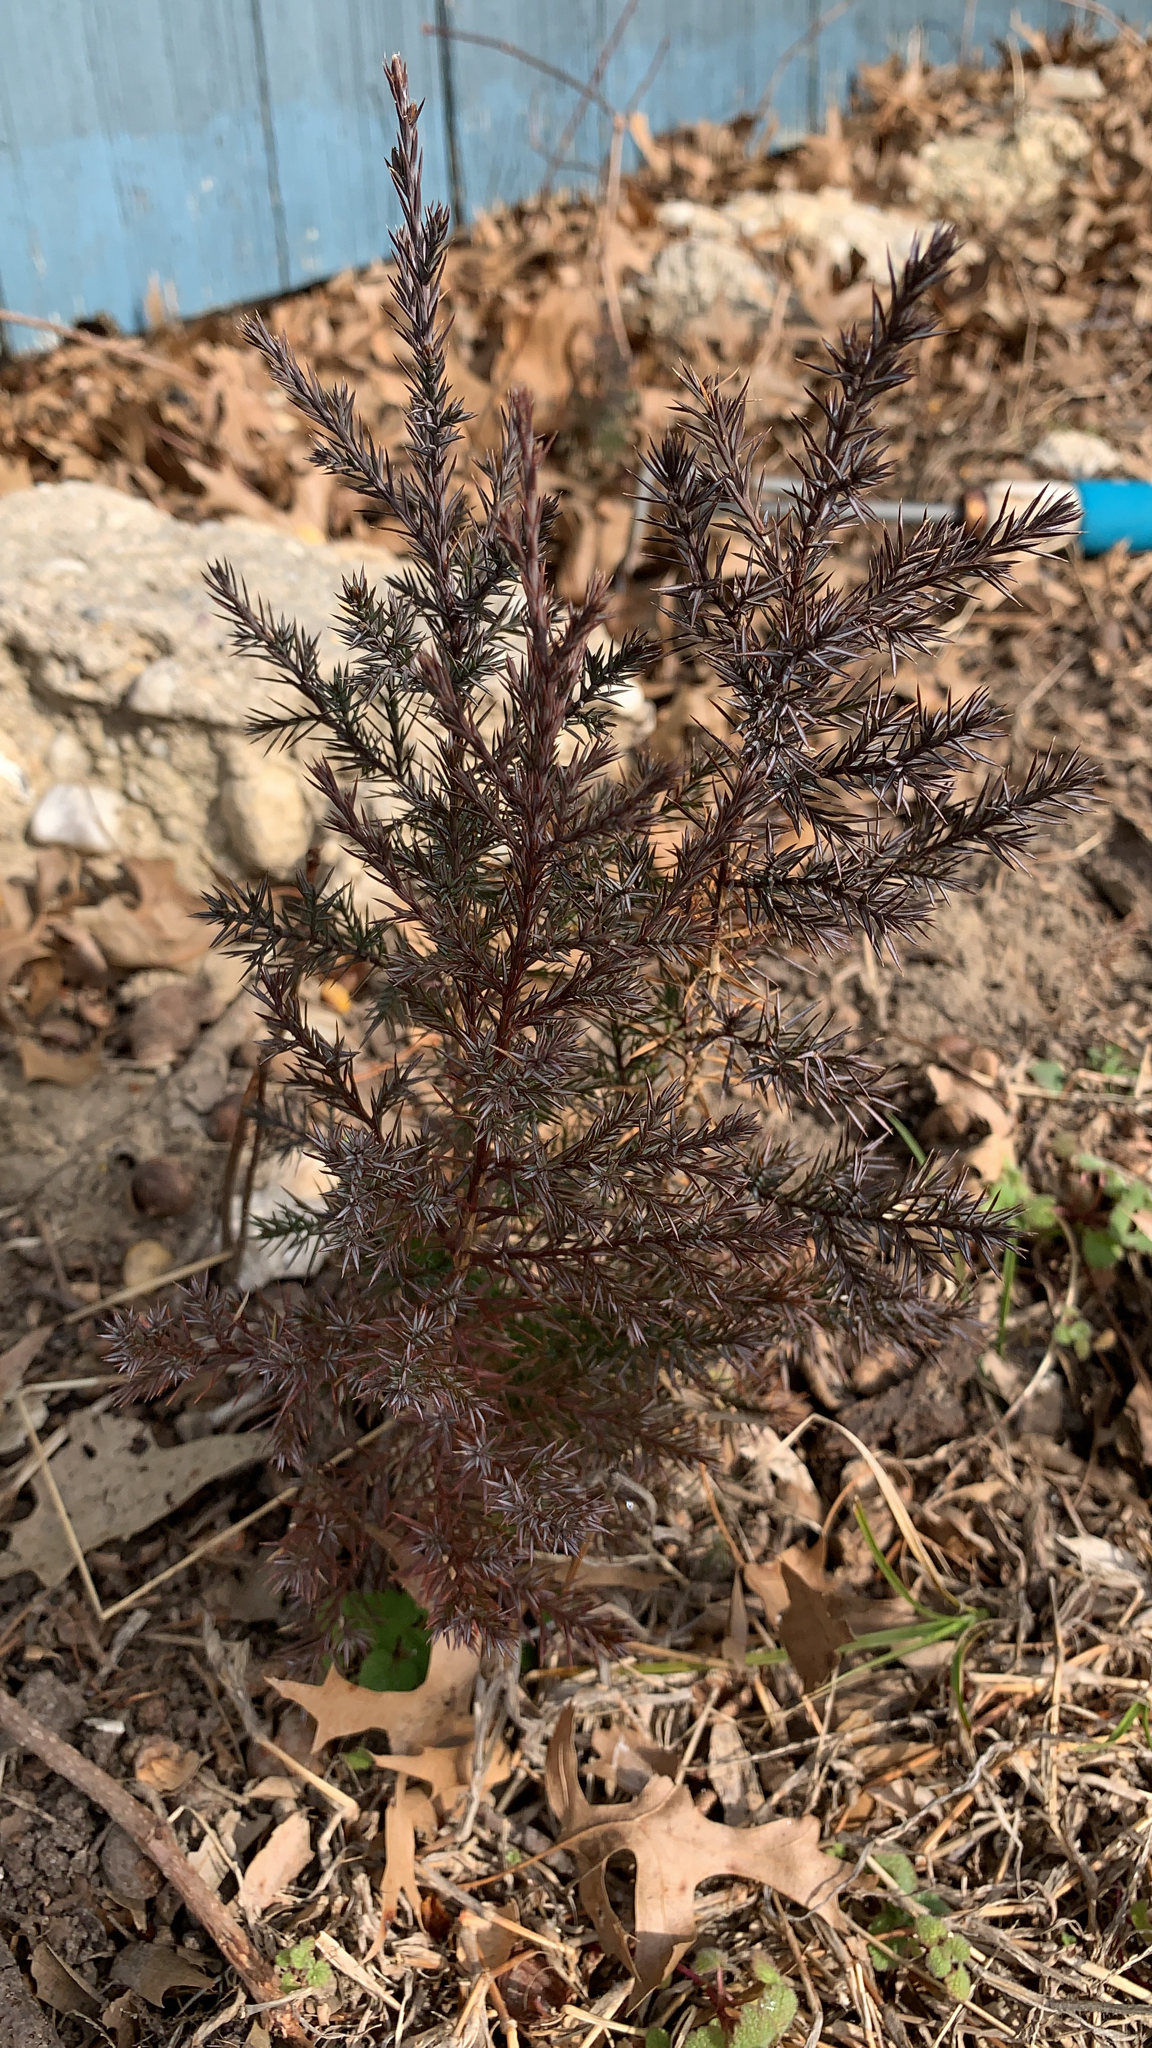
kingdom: Plantae
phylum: Tracheophyta
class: Pinopsida
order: Pinales
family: Cupressaceae
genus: Juniperus
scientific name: Juniperus virginiana
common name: Red juniper
